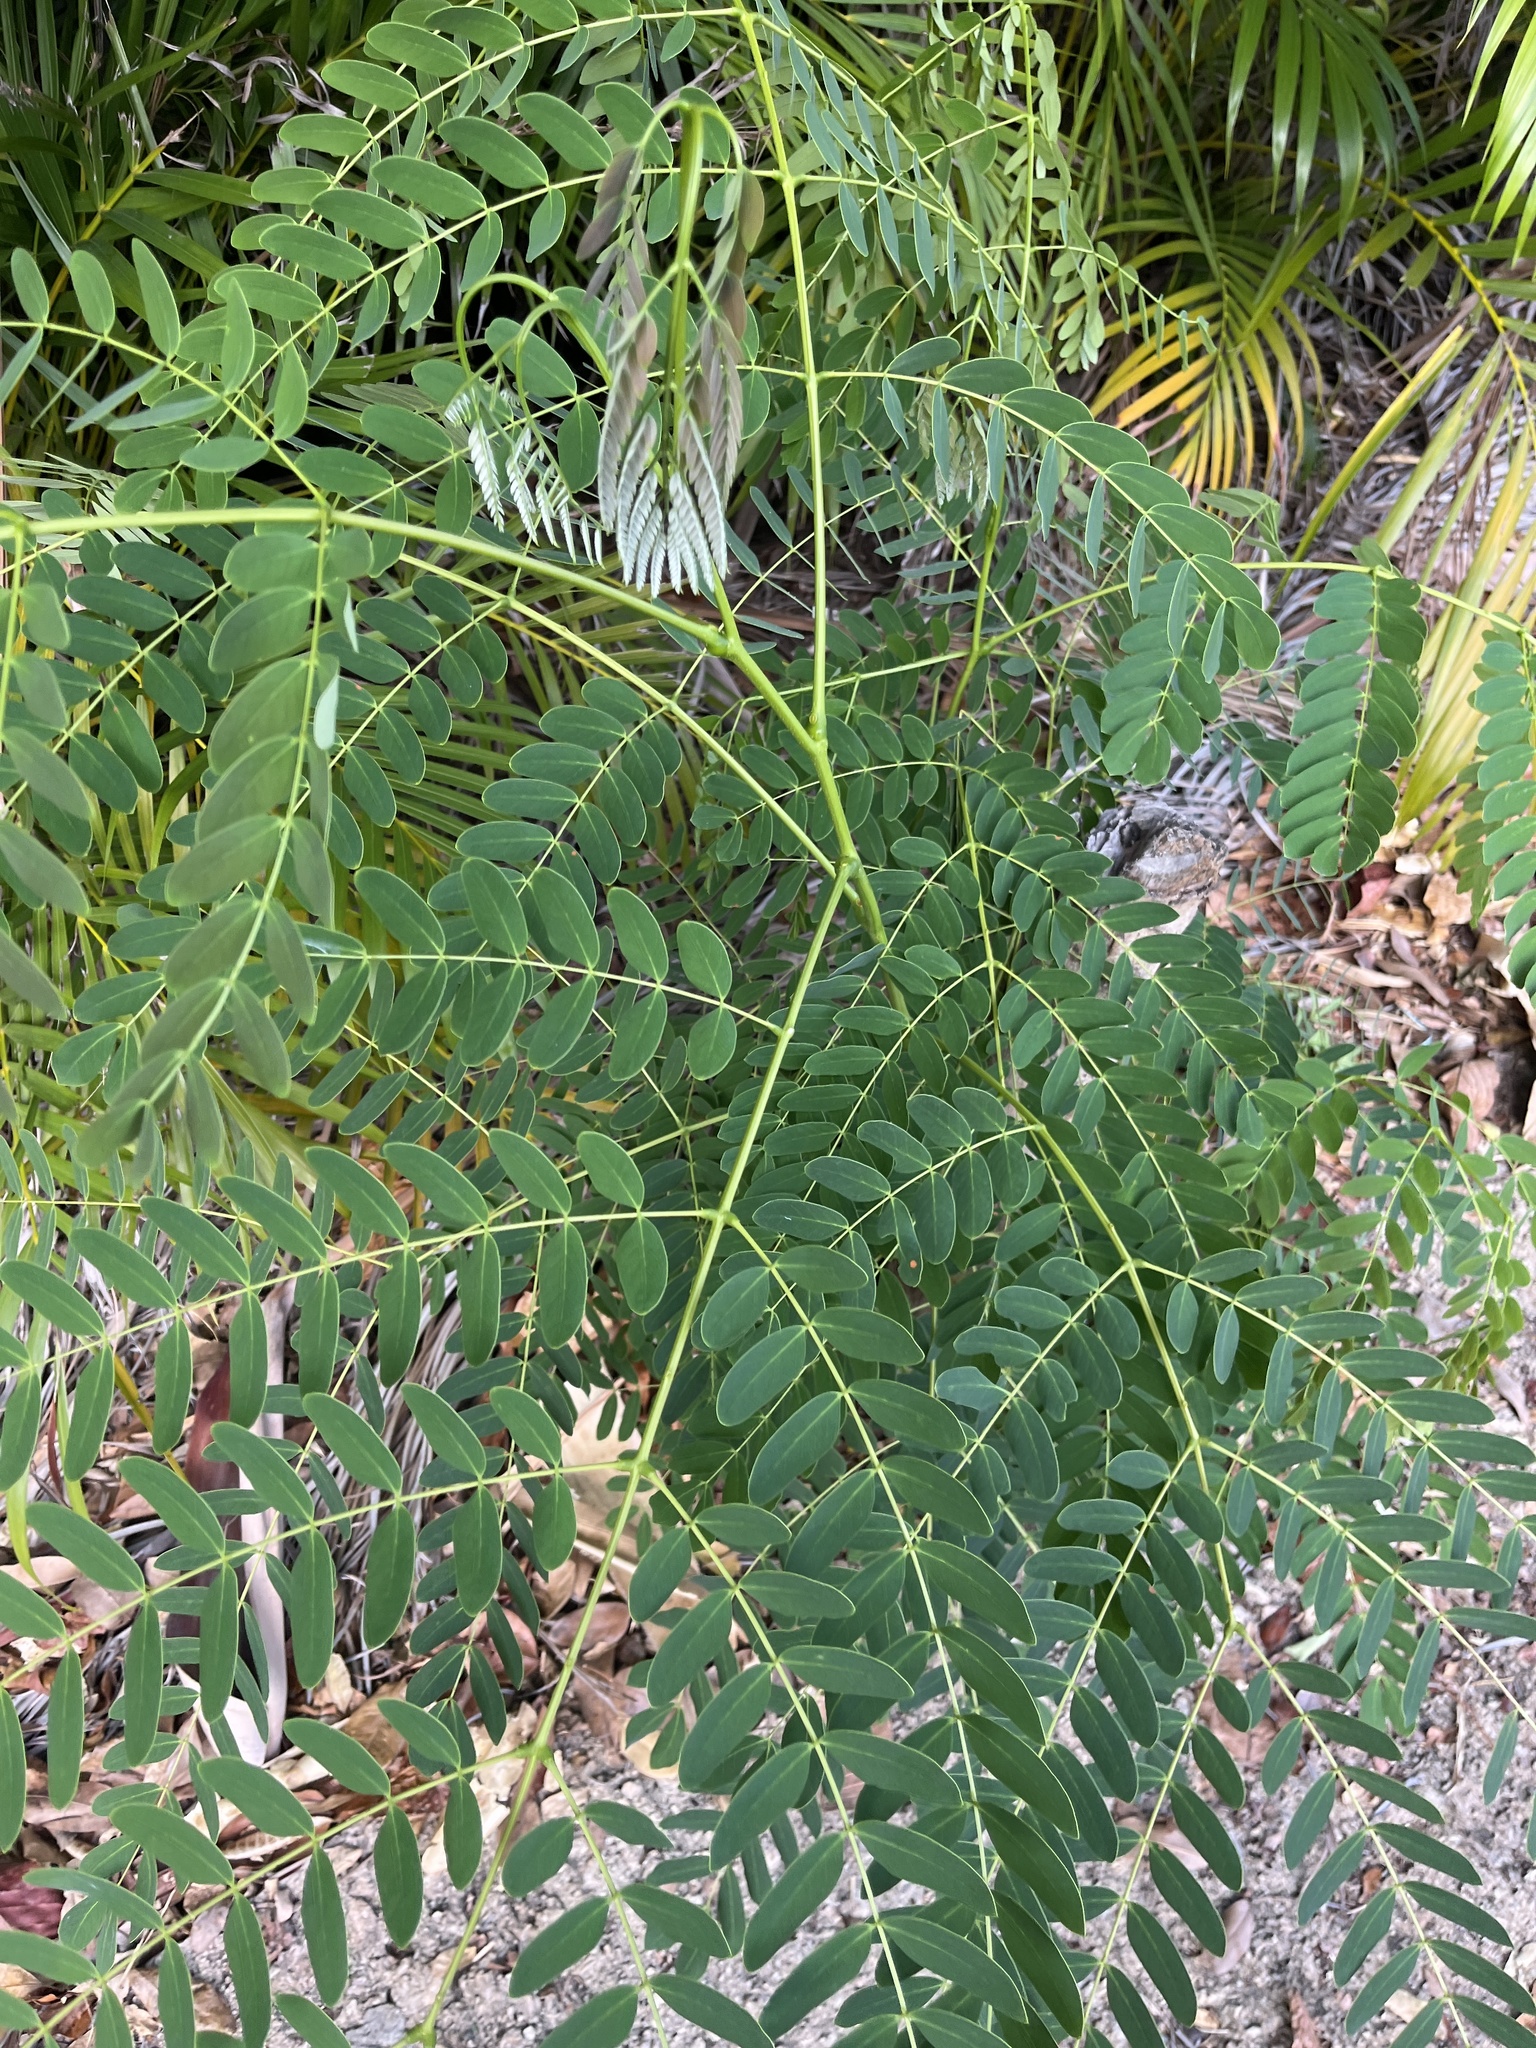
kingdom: Plantae
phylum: Tracheophyta
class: Magnoliopsida
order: Fabales
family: Fabaceae
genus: Albizia
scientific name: Albizia procera
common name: Tall albizia
